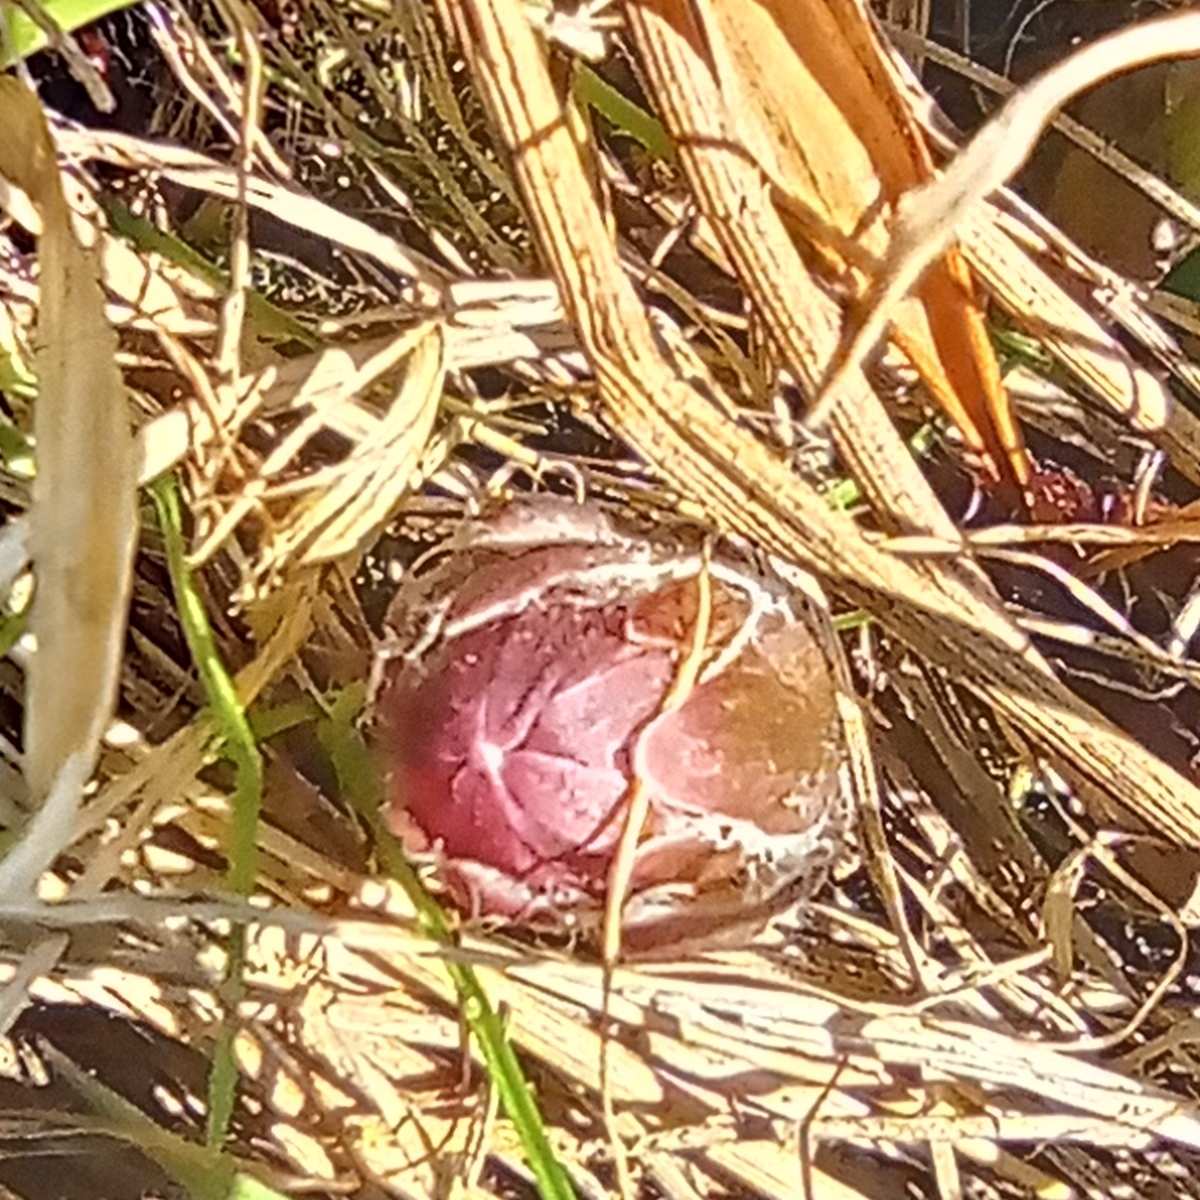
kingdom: Plantae
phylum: Tracheophyta
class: Magnoliopsida
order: Asterales
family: Asteraceae
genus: Tussilago
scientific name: Tussilago farfara
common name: Coltsfoot
